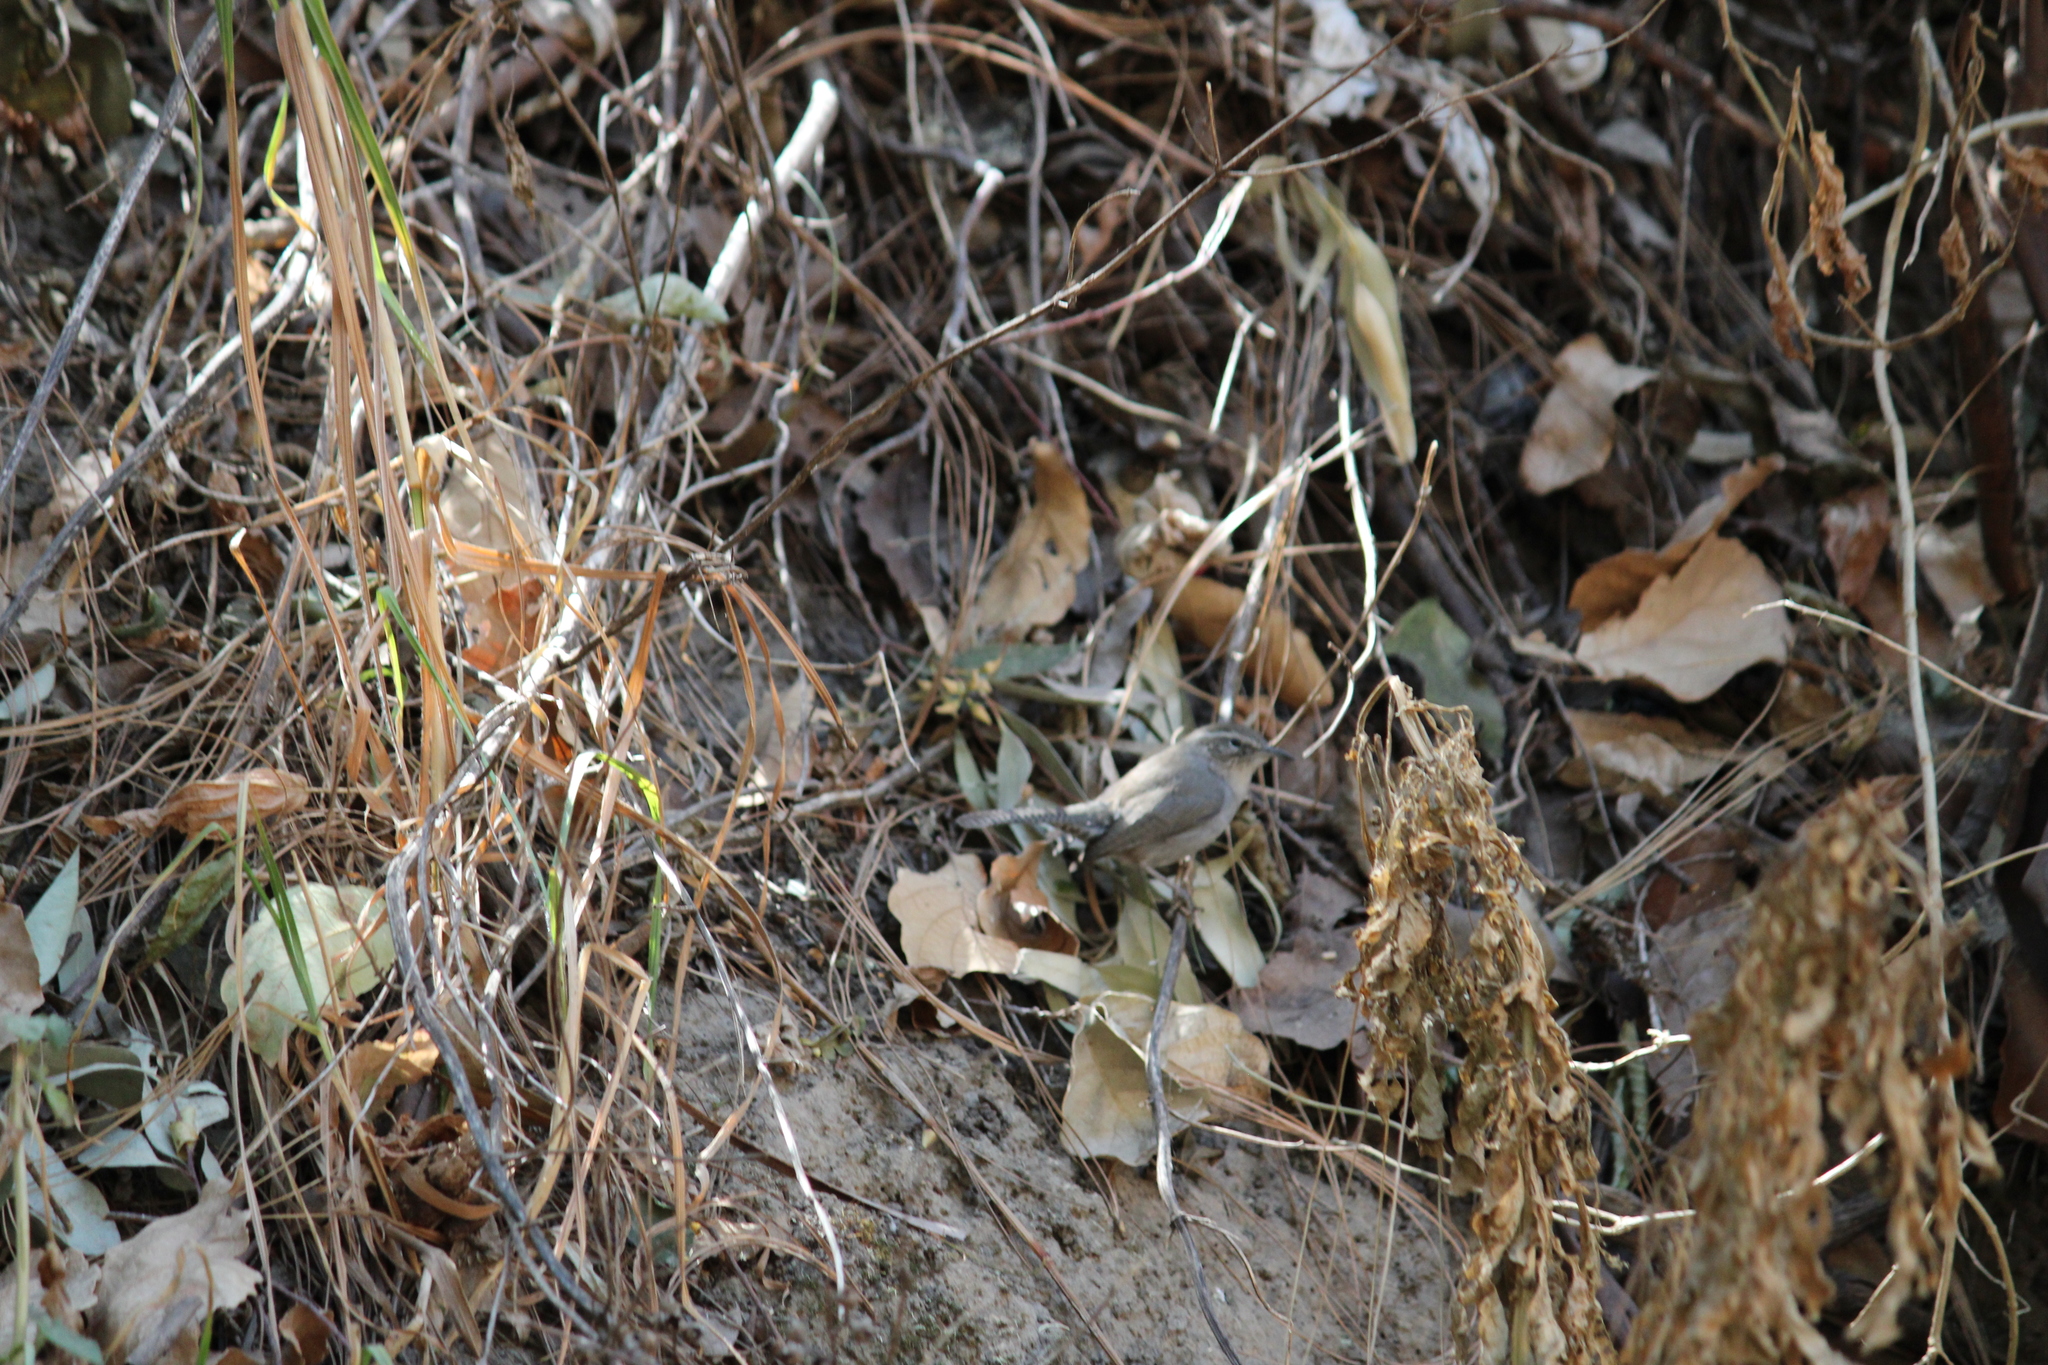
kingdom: Animalia
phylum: Chordata
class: Aves
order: Passeriformes
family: Troglodytidae
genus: Thryomanes
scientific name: Thryomanes bewickii
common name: Bewick's wren
